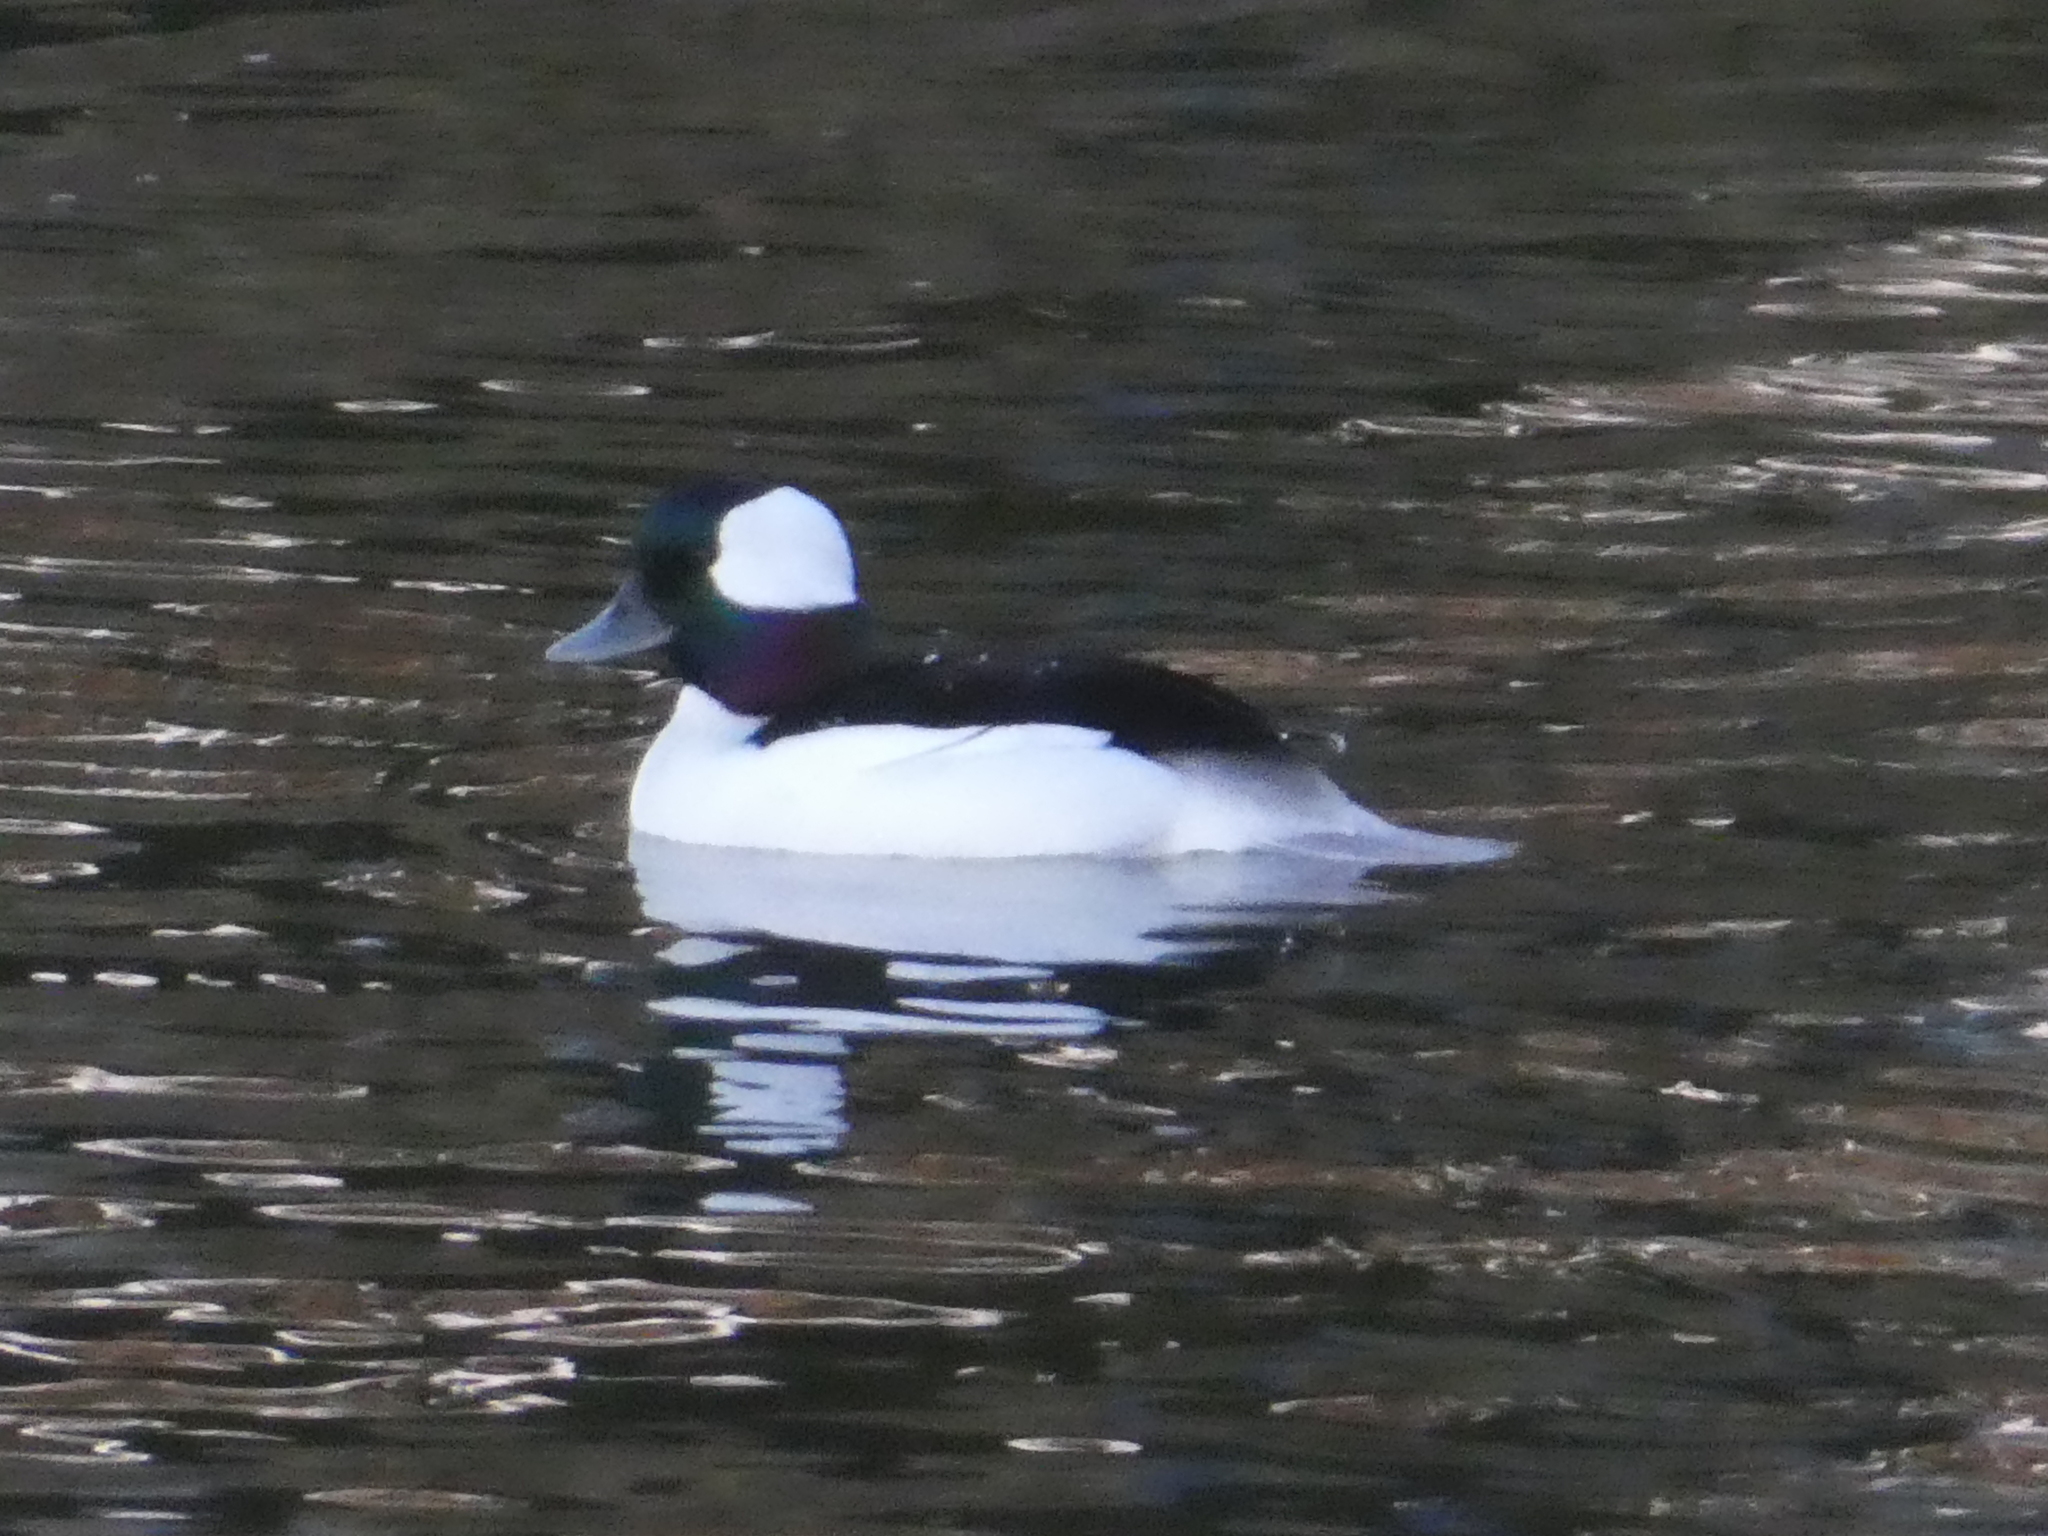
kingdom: Animalia
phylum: Chordata
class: Aves
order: Anseriformes
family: Anatidae
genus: Bucephala
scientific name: Bucephala albeola
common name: Bufflehead
